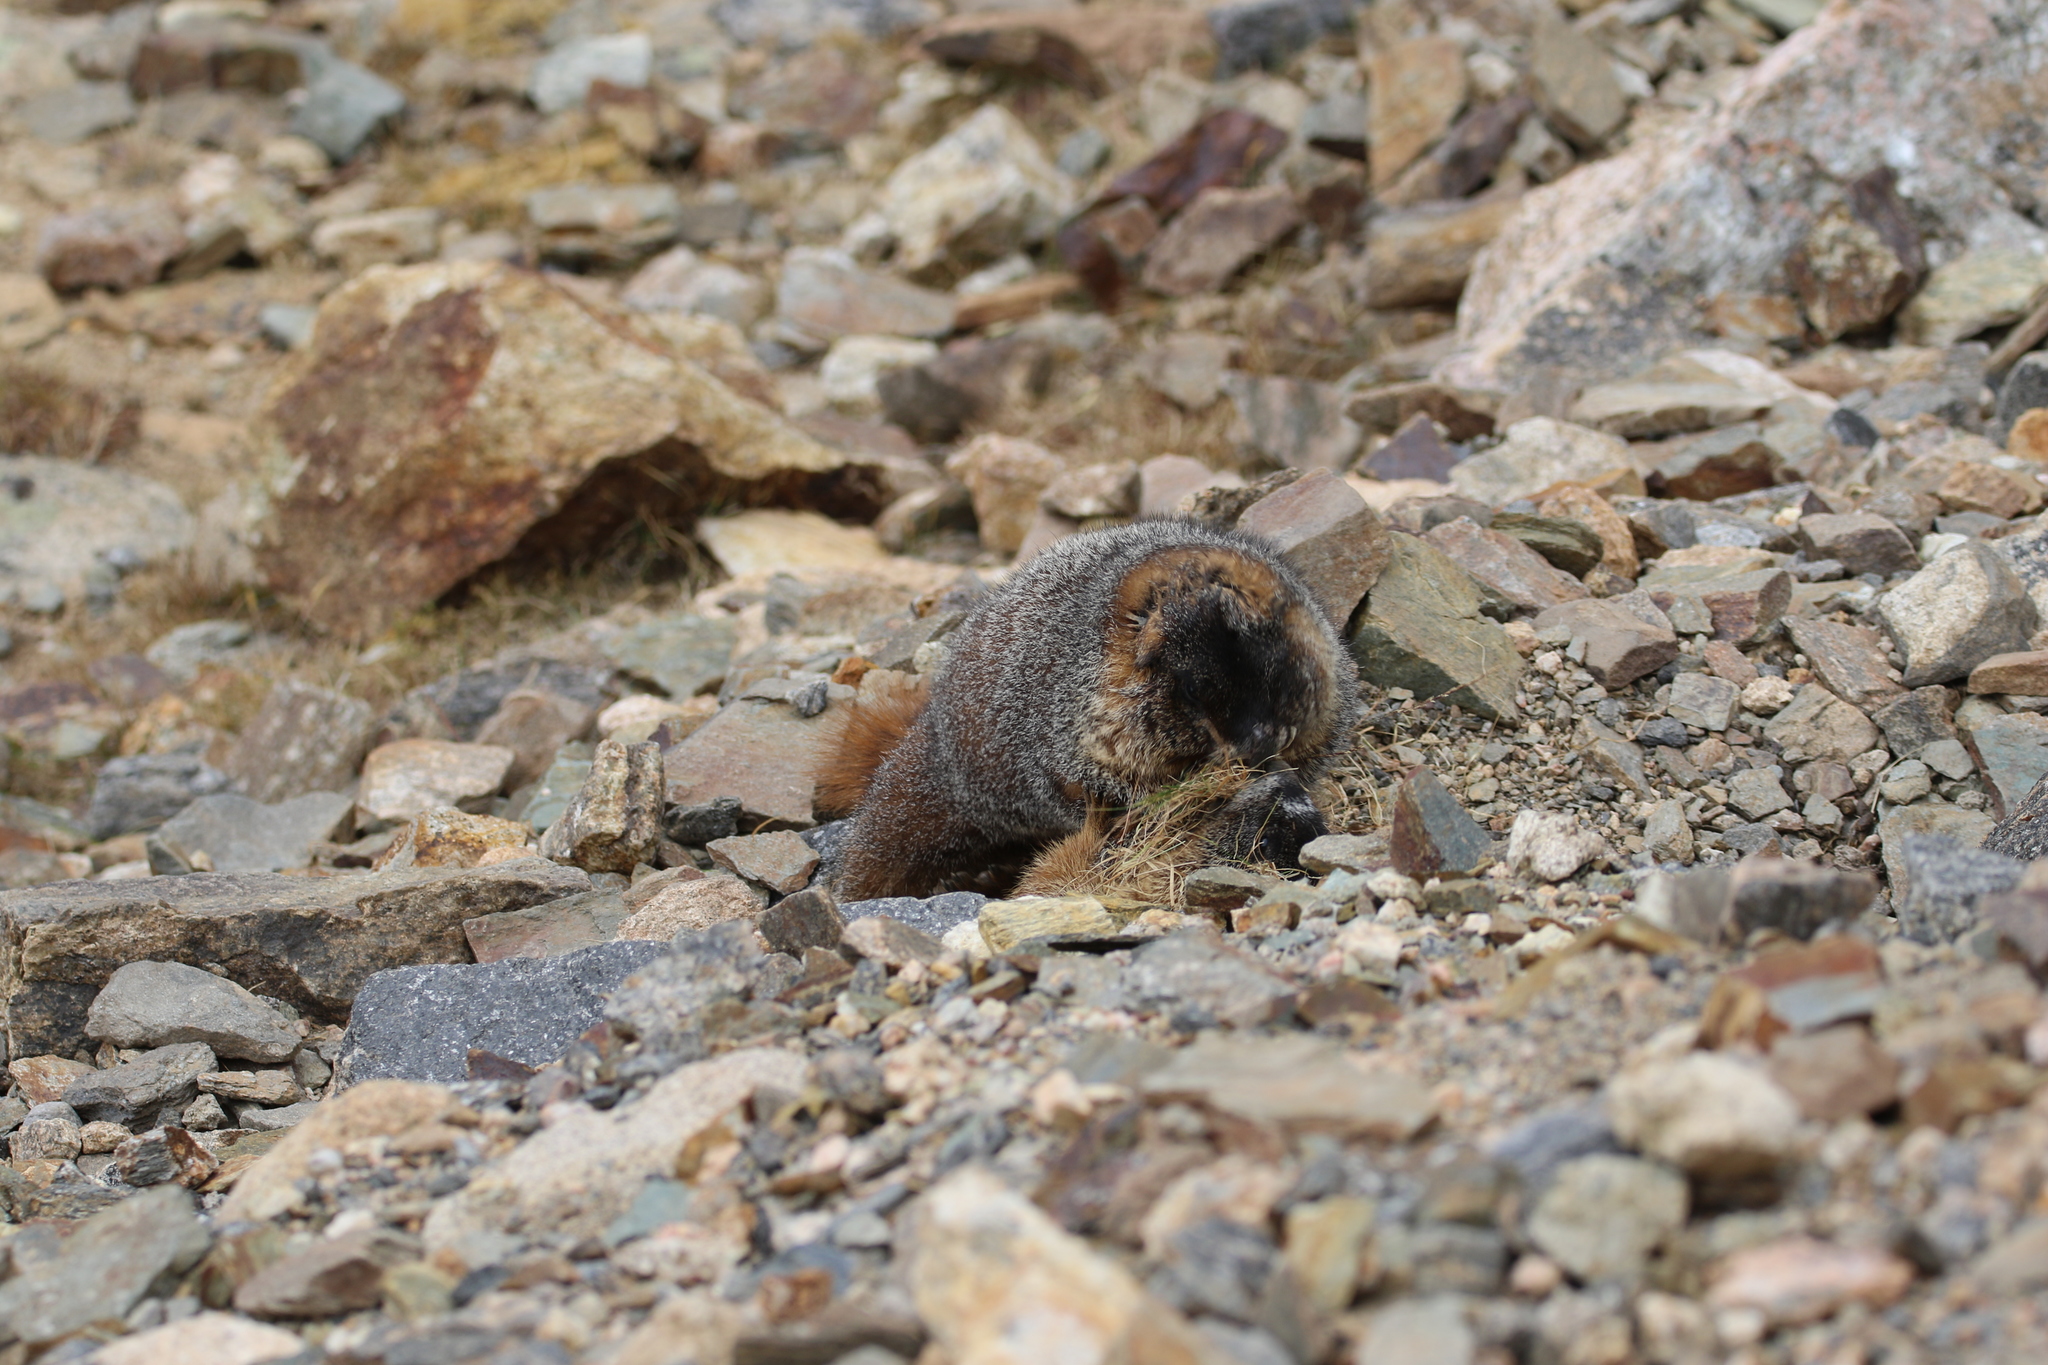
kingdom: Animalia
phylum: Chordata
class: Mammalia
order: Rodentia
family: Sciuridae
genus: Marmota
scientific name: Marmota flaviventris
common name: Yellow-bellied marmot
